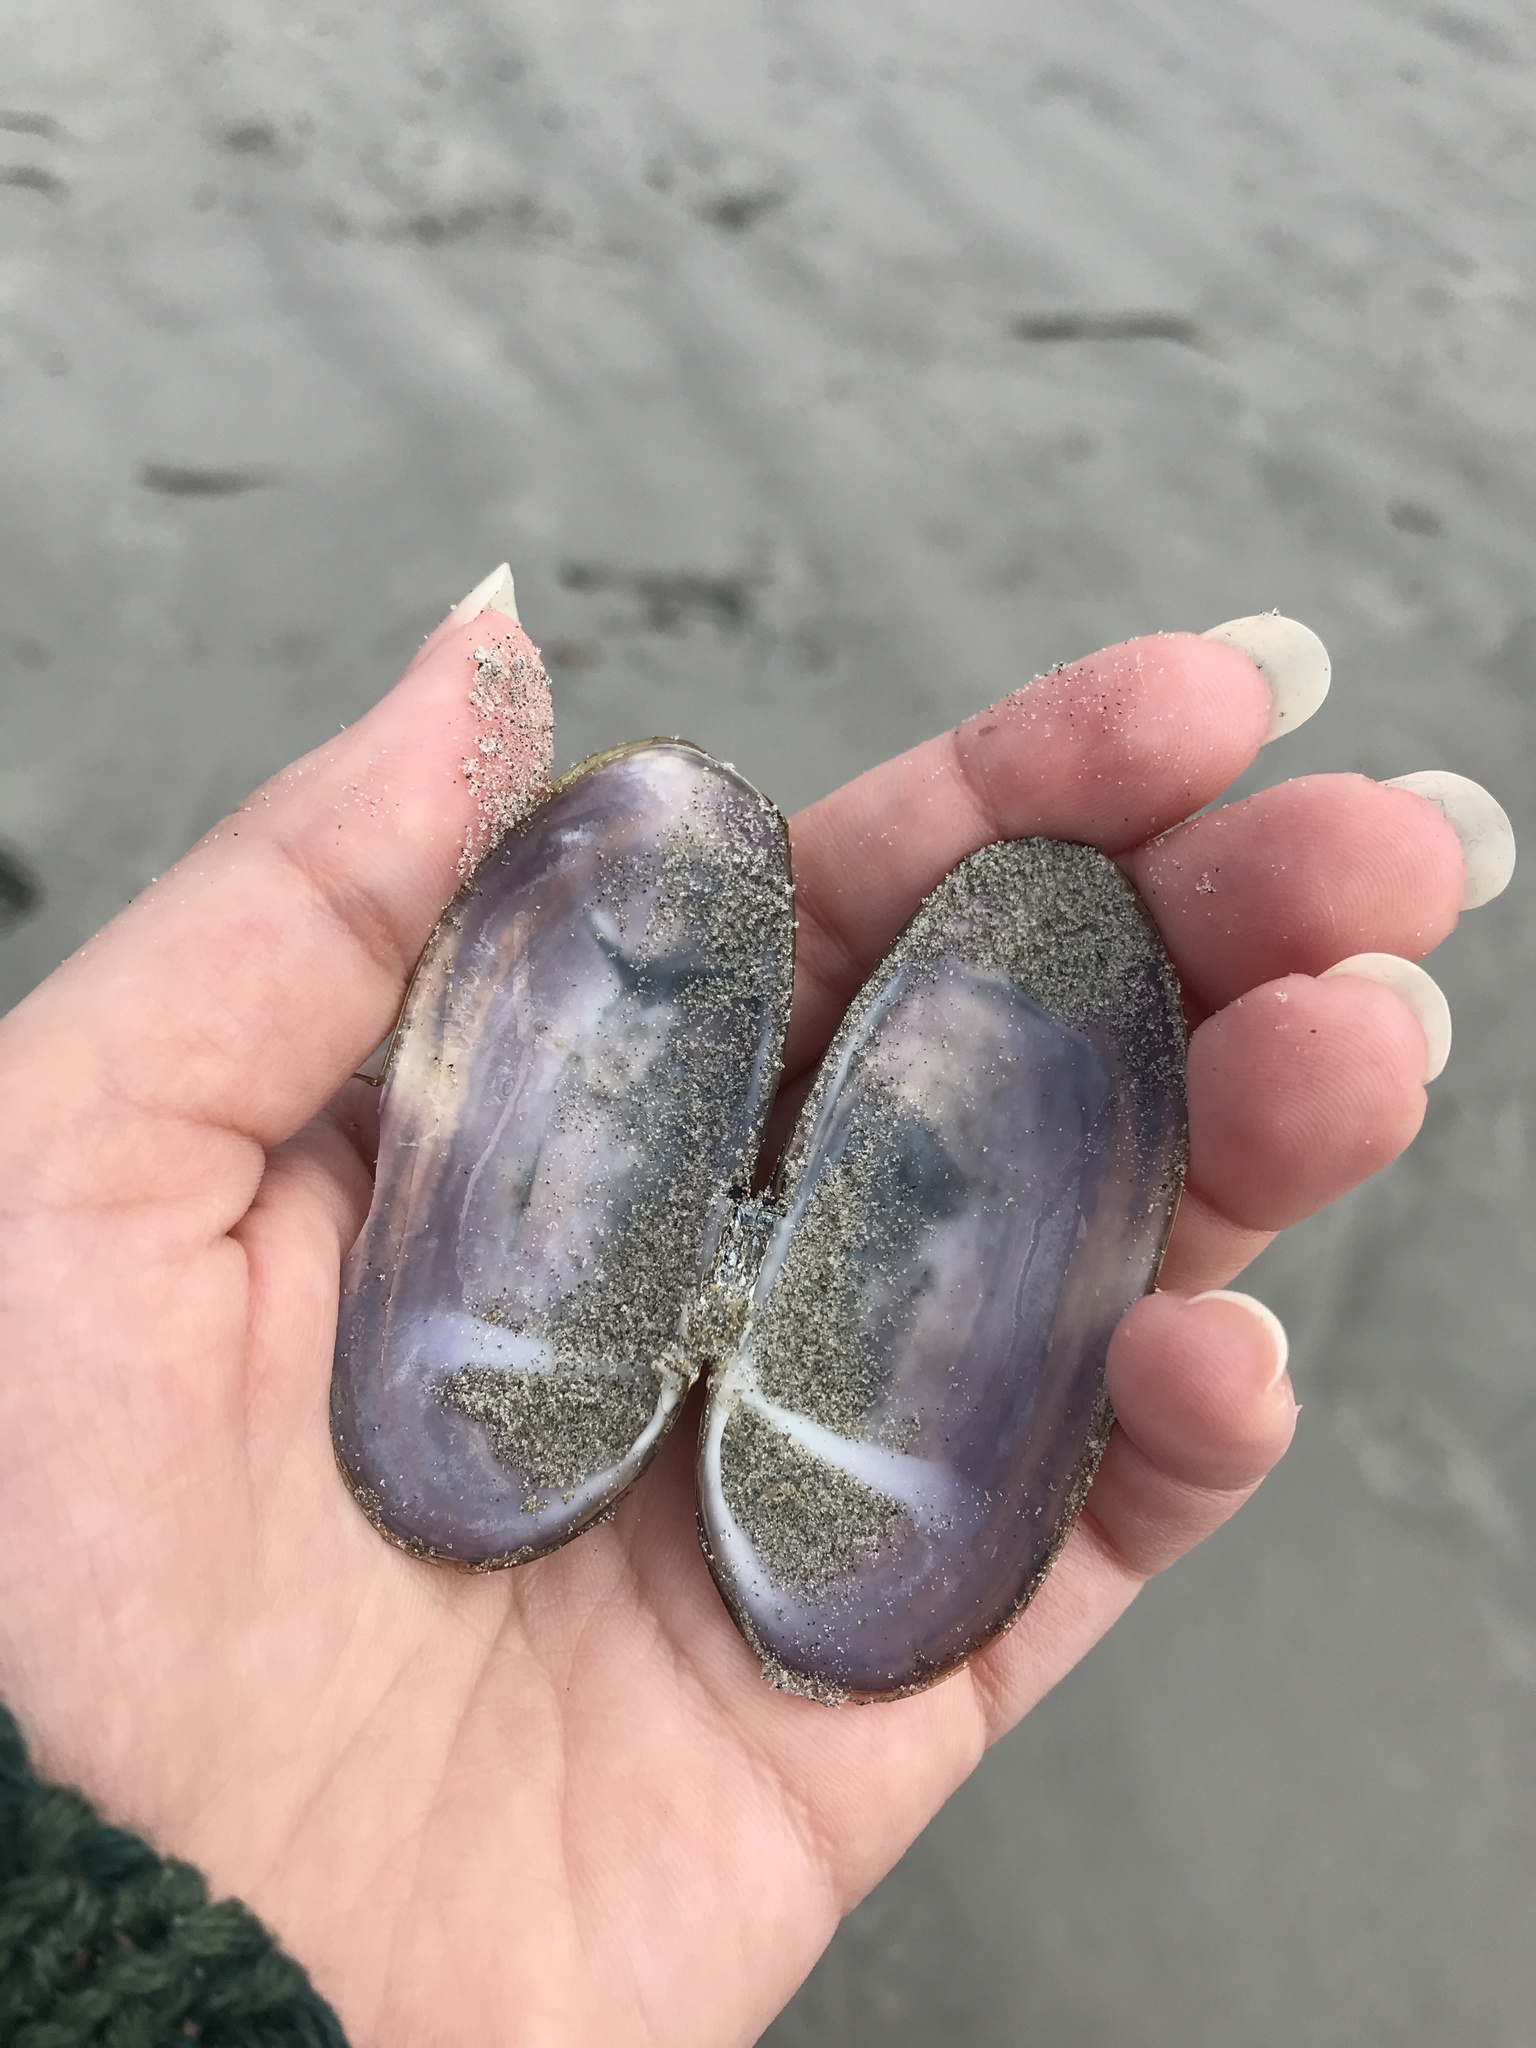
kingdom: Animalia
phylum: Mollusca
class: Bivalvia
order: Adapedonta
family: Pharidae
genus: Siliqua
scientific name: Siliqua costata
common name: Atlantic razor
